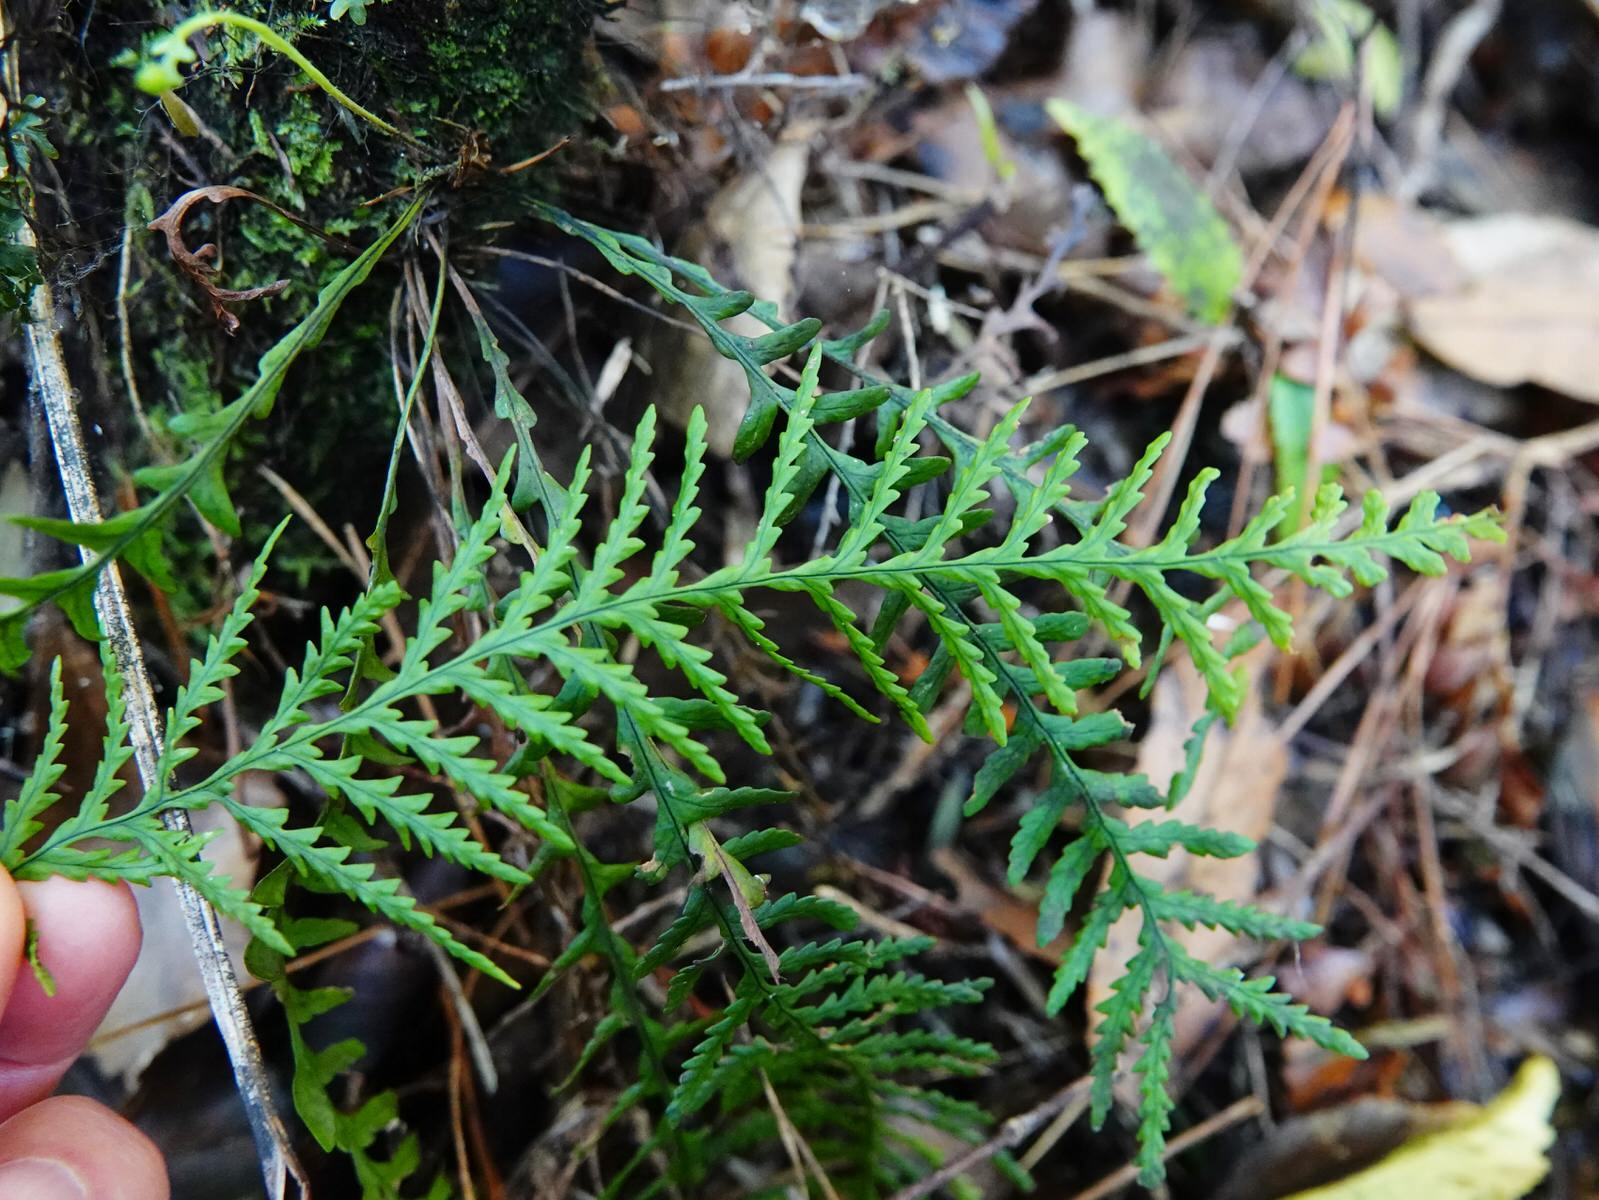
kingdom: Plantae
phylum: Tracheophyta
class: Polypodiopsida
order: Polypodiales
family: Polypodiaceae
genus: Notogrammitis
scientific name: Notogrammitis heterophylla
